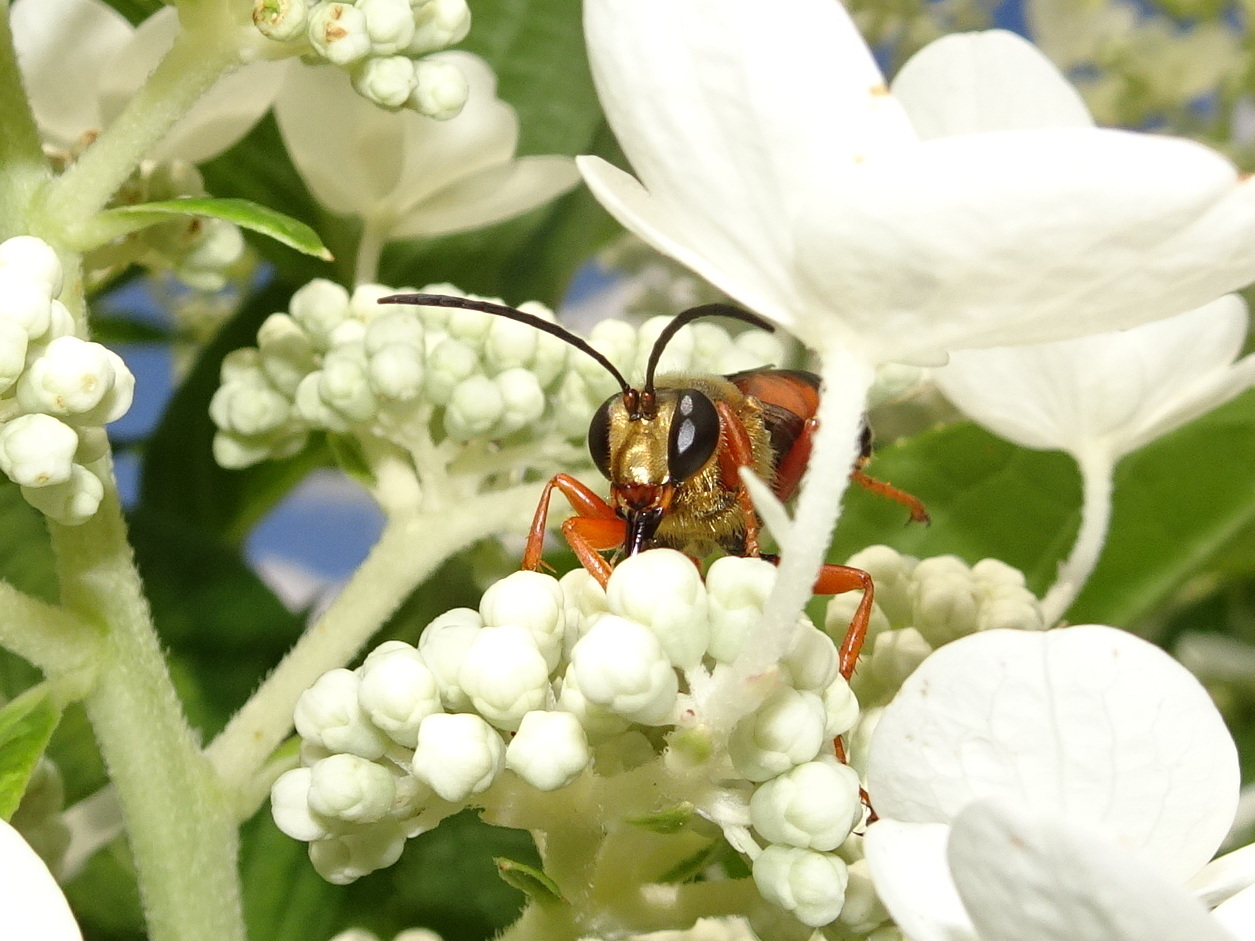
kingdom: Animalia
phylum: Arthropoda
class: Insecta
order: Hymenoptera
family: Sphecidae
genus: Sphex
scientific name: Sphex ichneumoneus
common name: Great golden digger wasp
